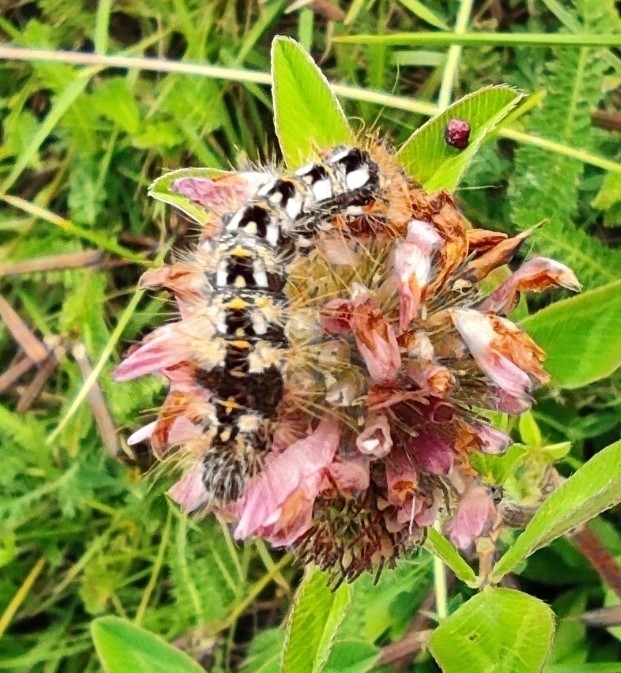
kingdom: Animalia
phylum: Arthropoda
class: Insecta
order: Lepidoptera
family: Noctuidae
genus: Acronicta
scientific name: Acronicta rumicis
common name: Knot grass
